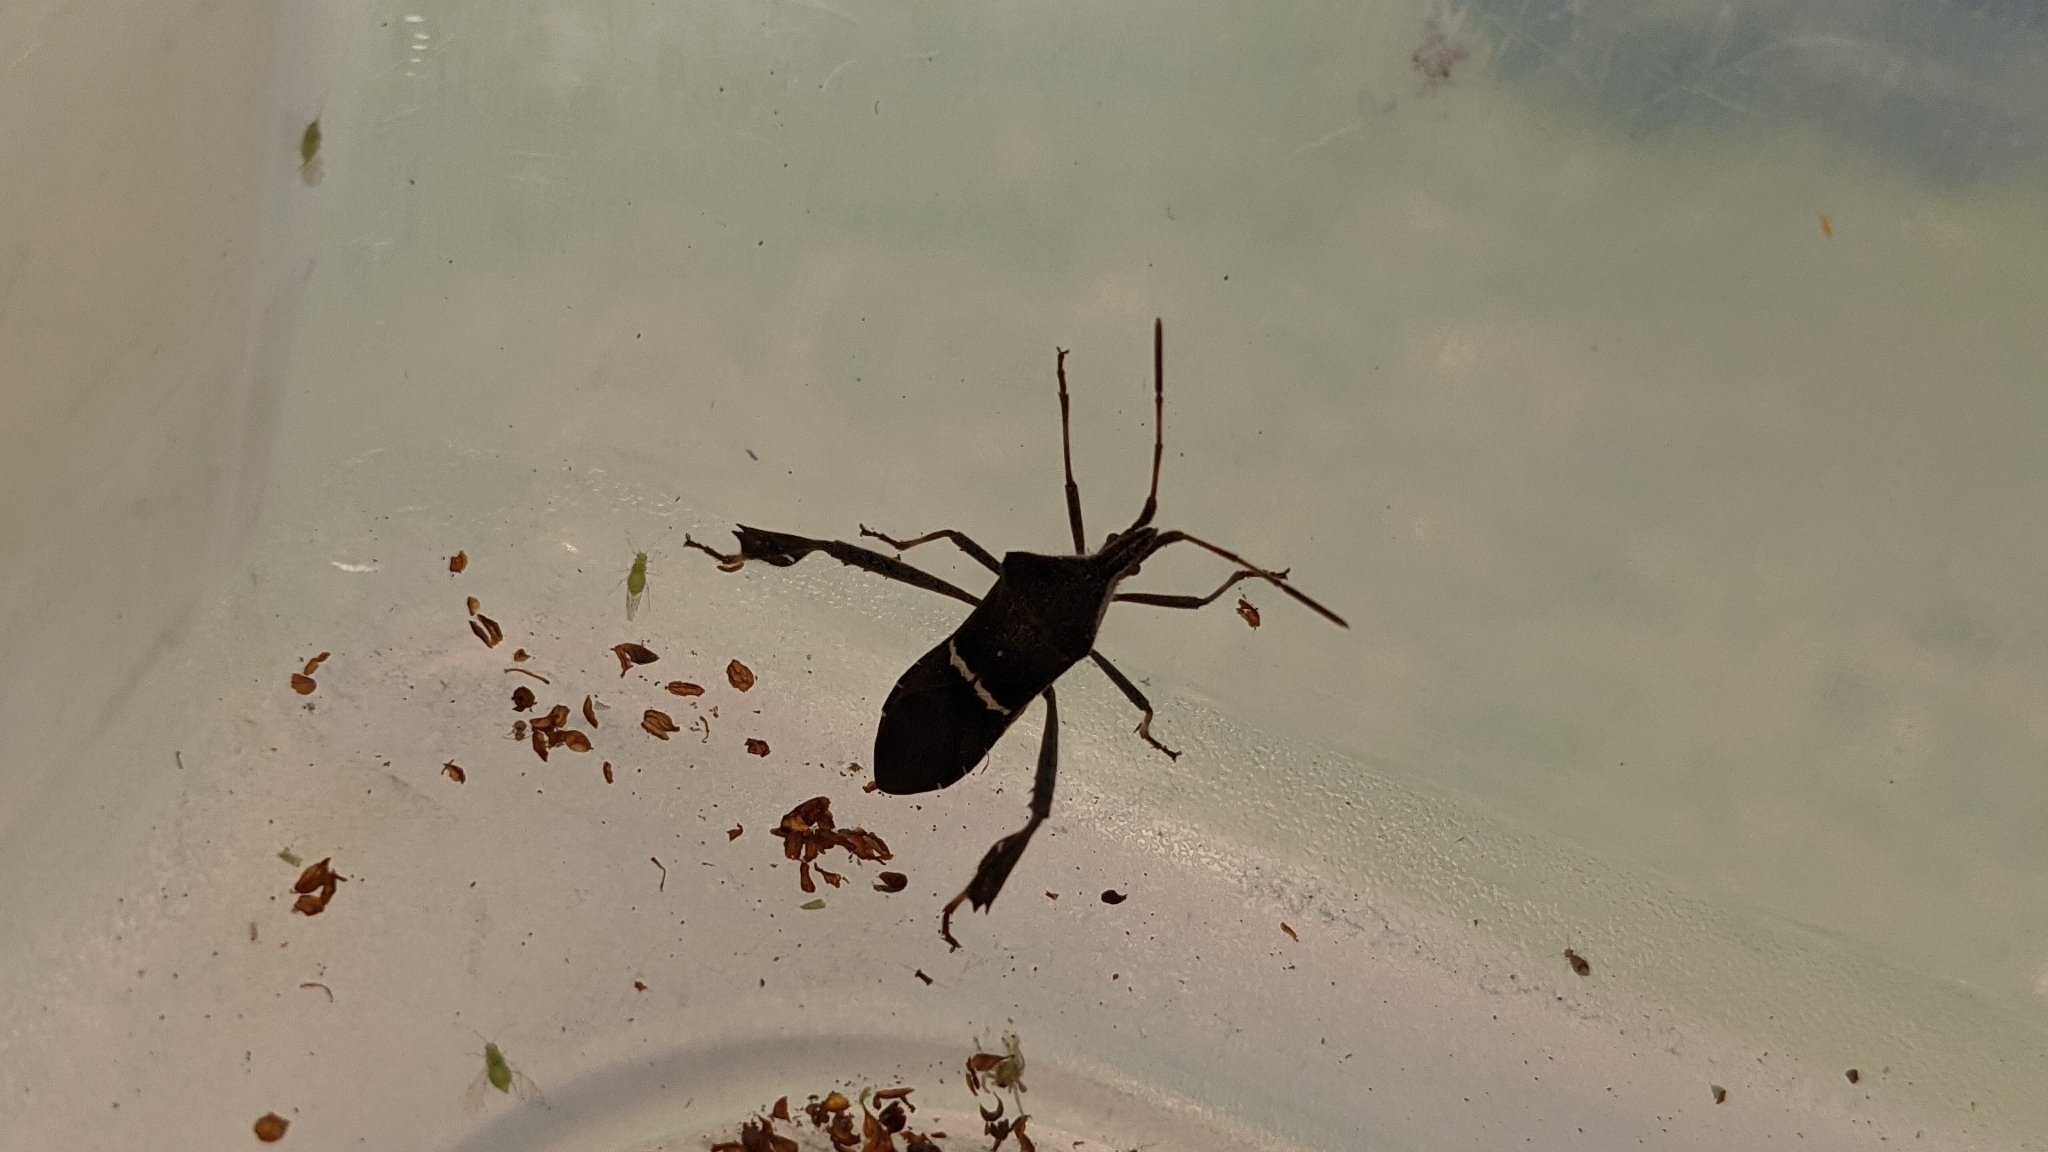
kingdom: Animalia
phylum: Arthropoda
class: Insecta
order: Hemiptera
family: Coreidae
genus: Leptoglossus
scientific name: Leptoglossus phyllopus
